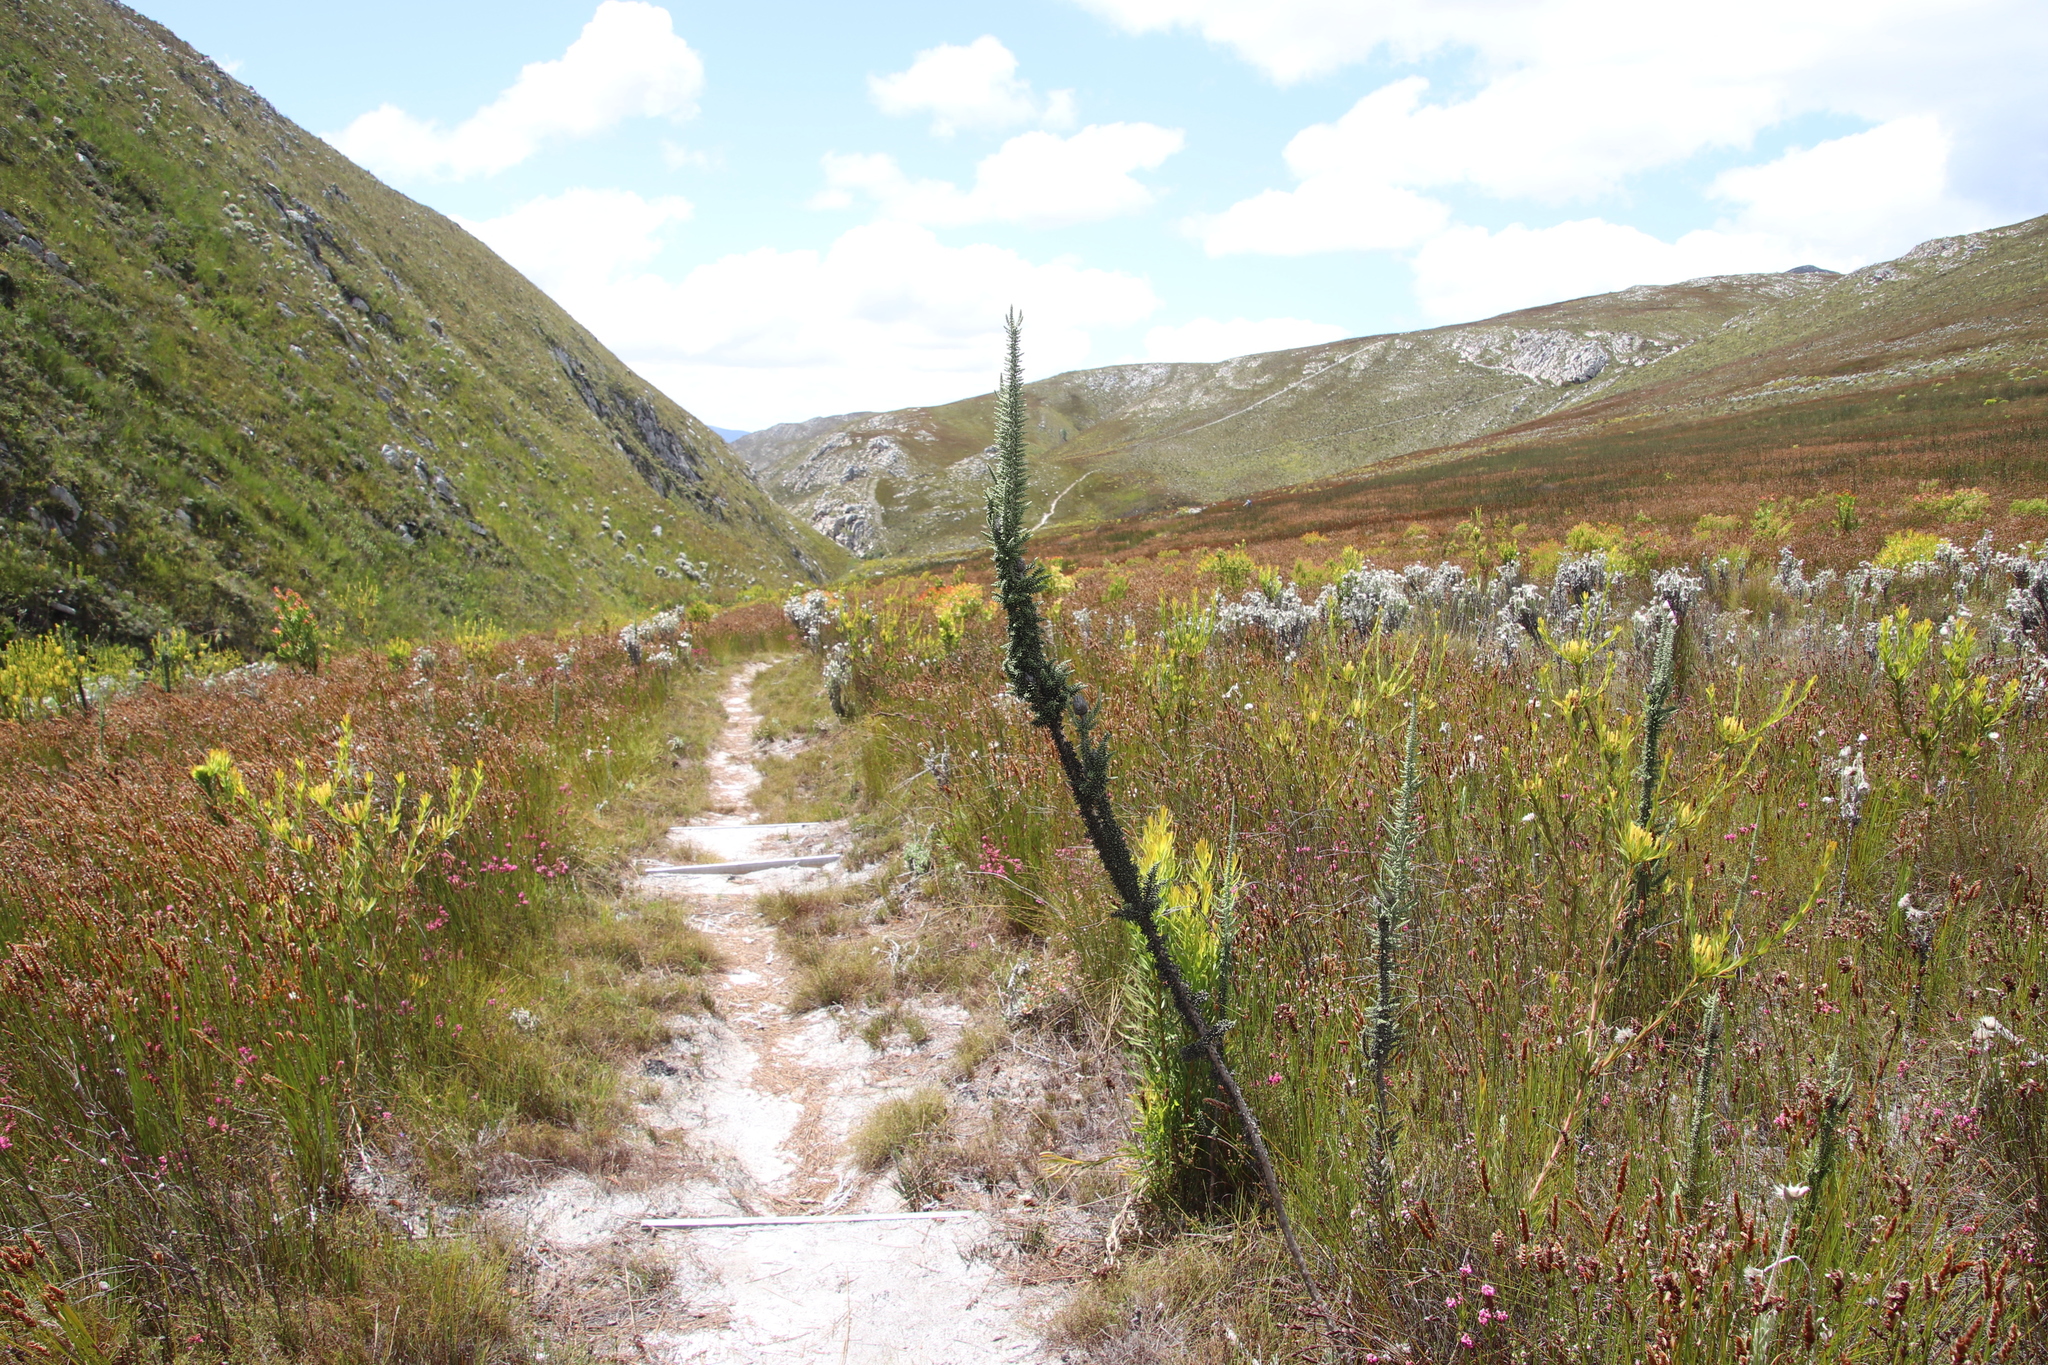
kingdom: Plantae
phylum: Tracheophyta
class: Magnoliopsida
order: Asterales
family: Asteraceae
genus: Phaenocoma
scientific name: Phaenocoma prolifera
